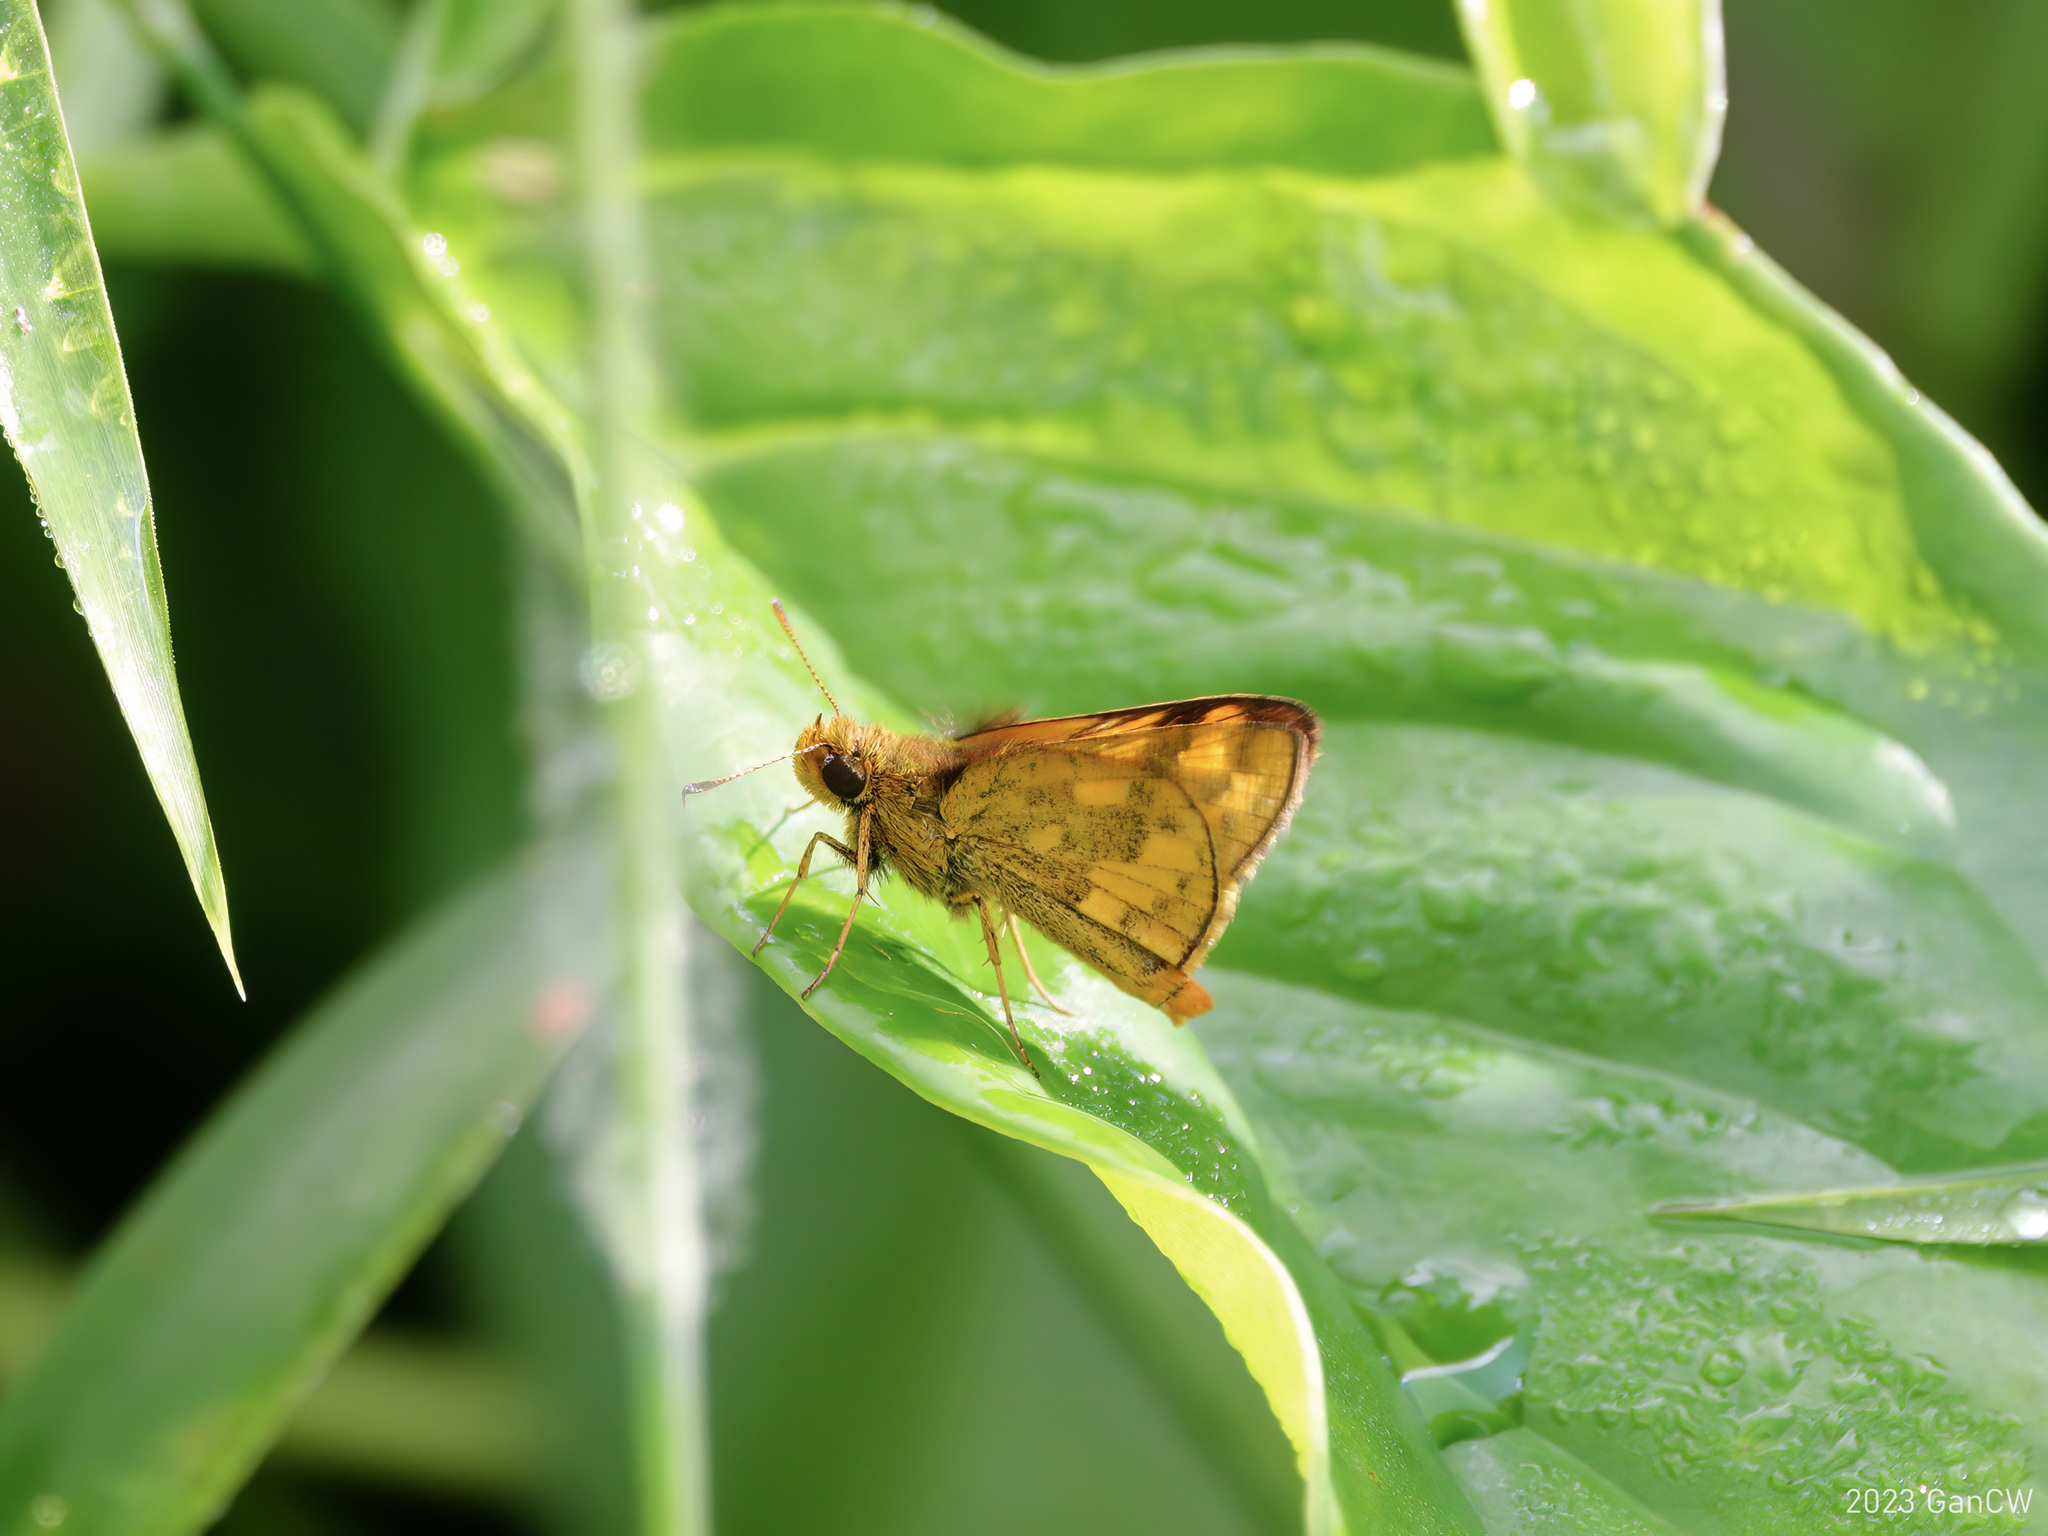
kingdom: Animalia
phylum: Arthropoda
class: Insecta
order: Lepidoptera
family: Hesperiidae
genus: Potanthus
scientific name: Potanthus omaha
